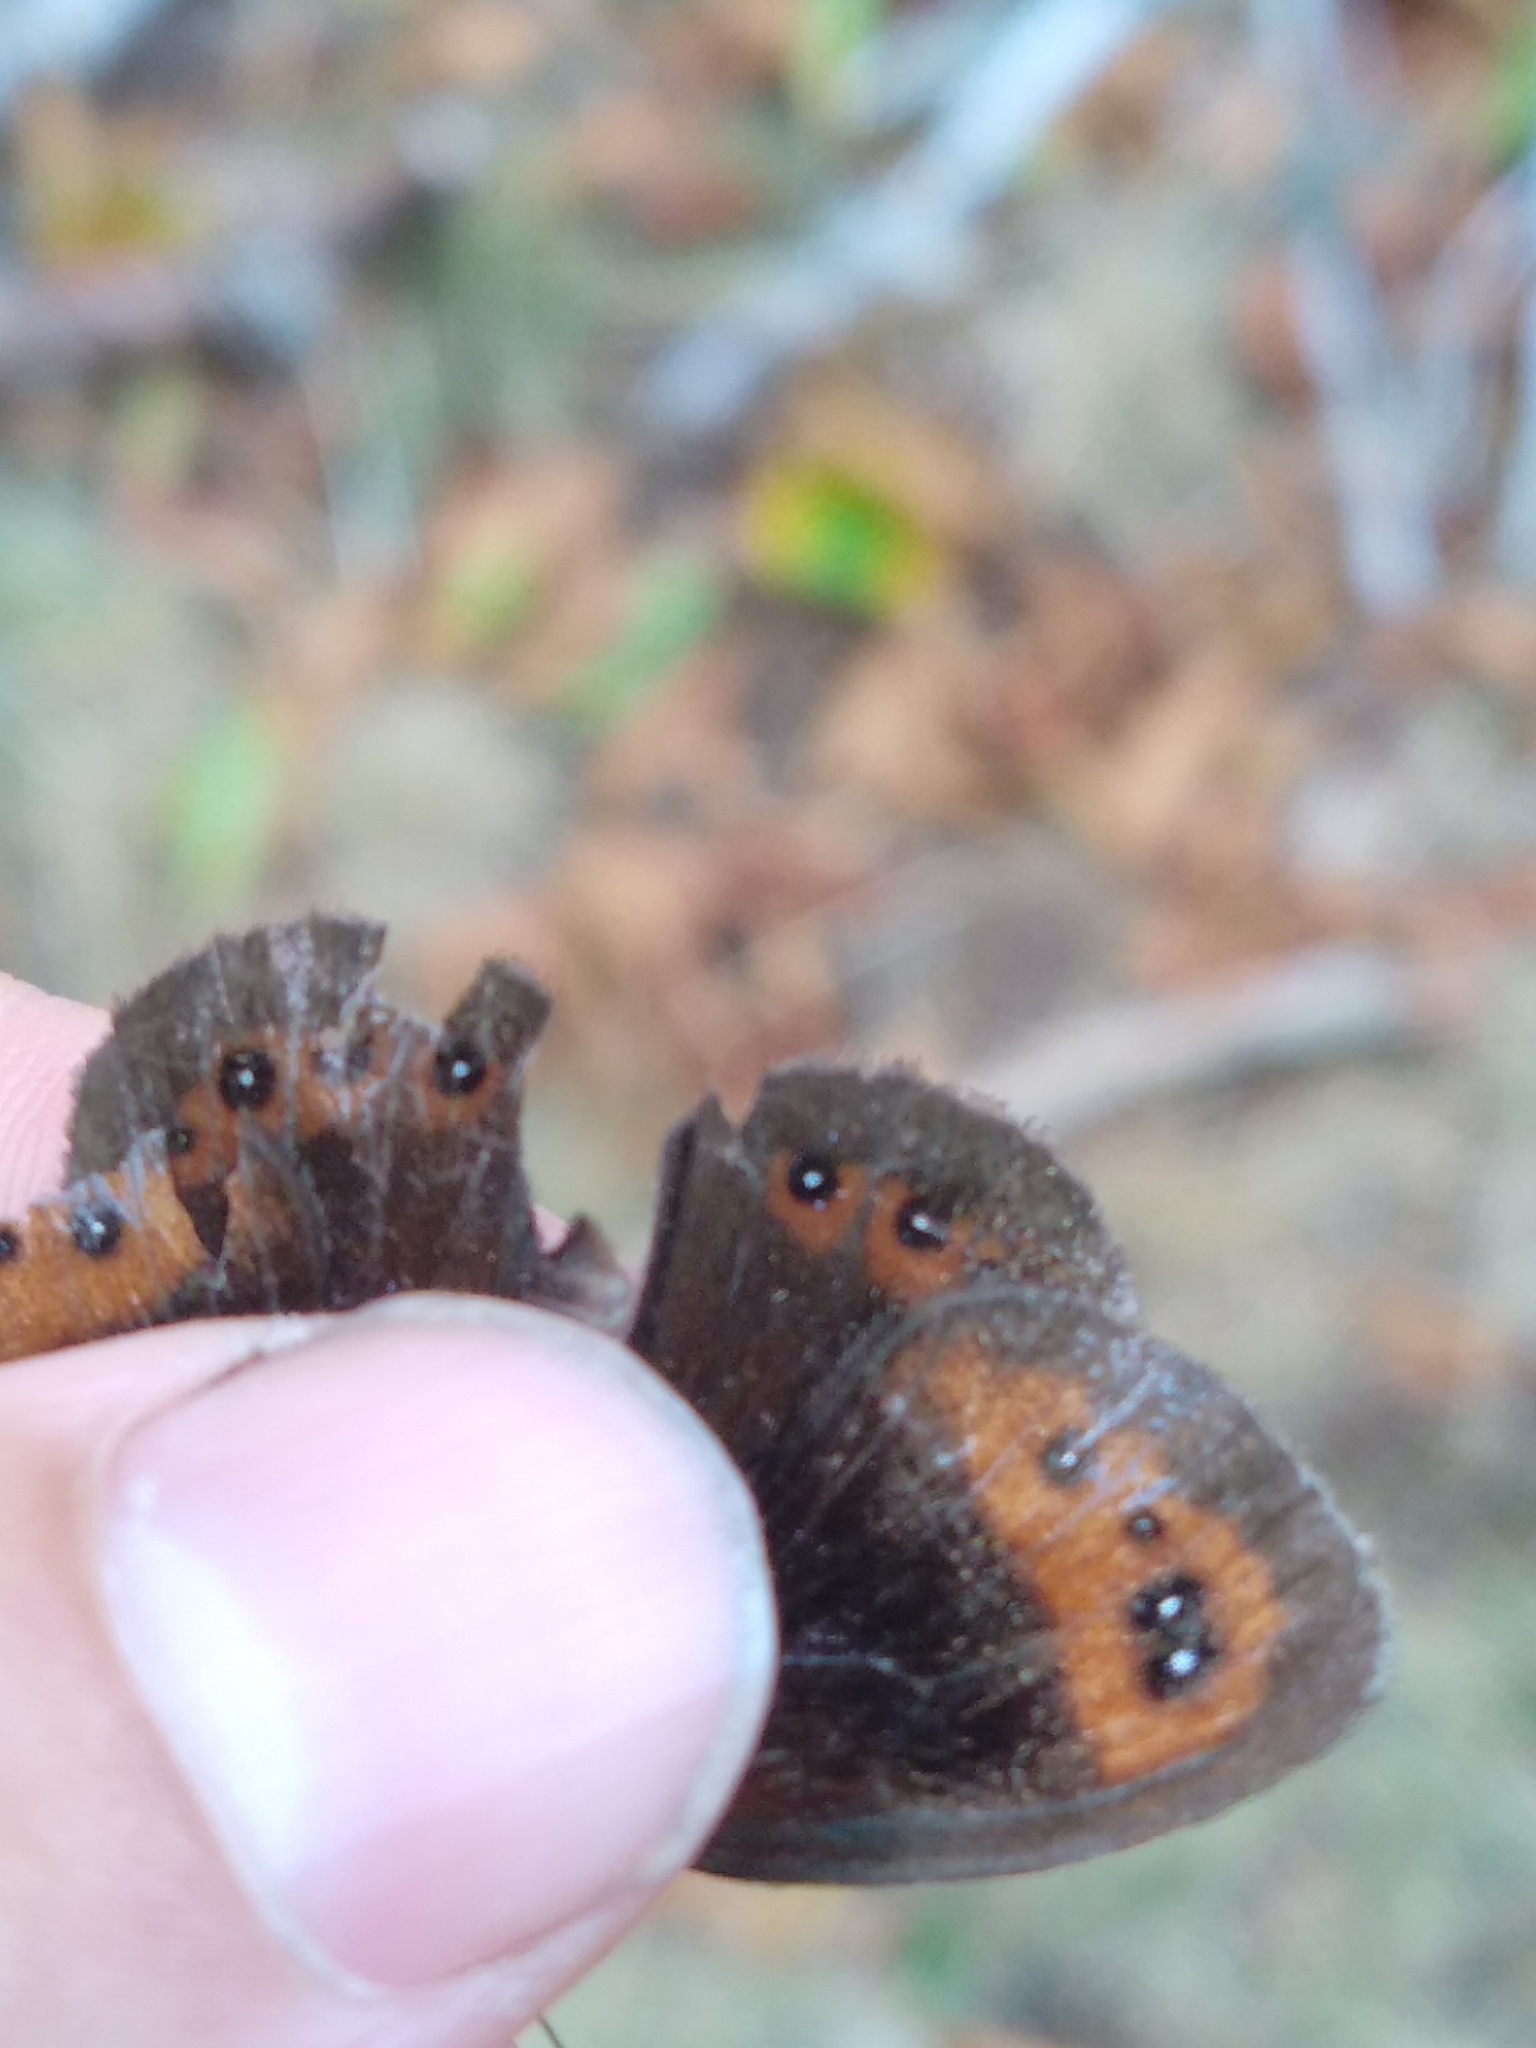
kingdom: Animalia
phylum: Arthropoda
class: Insecta
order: Lepidoptera
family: Nymphalidae
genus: Erebia
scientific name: Erebia neoridas
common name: Autumn ringlet
